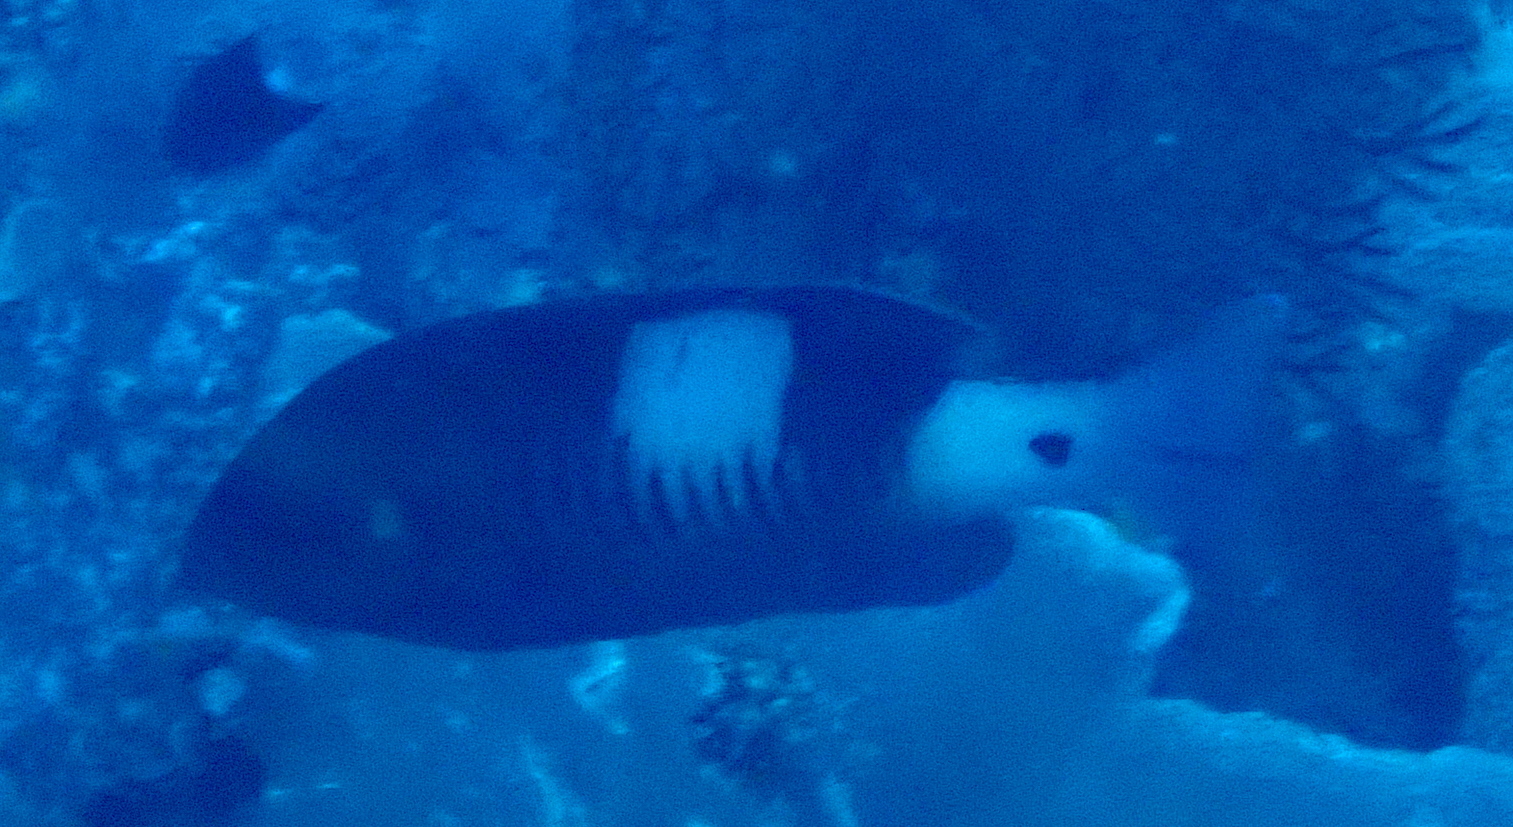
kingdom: Animalia
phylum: Chordata
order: Perciformes
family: Serranidae
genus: Gracila
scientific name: Gracila albomarginata
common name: White-margined grouper
